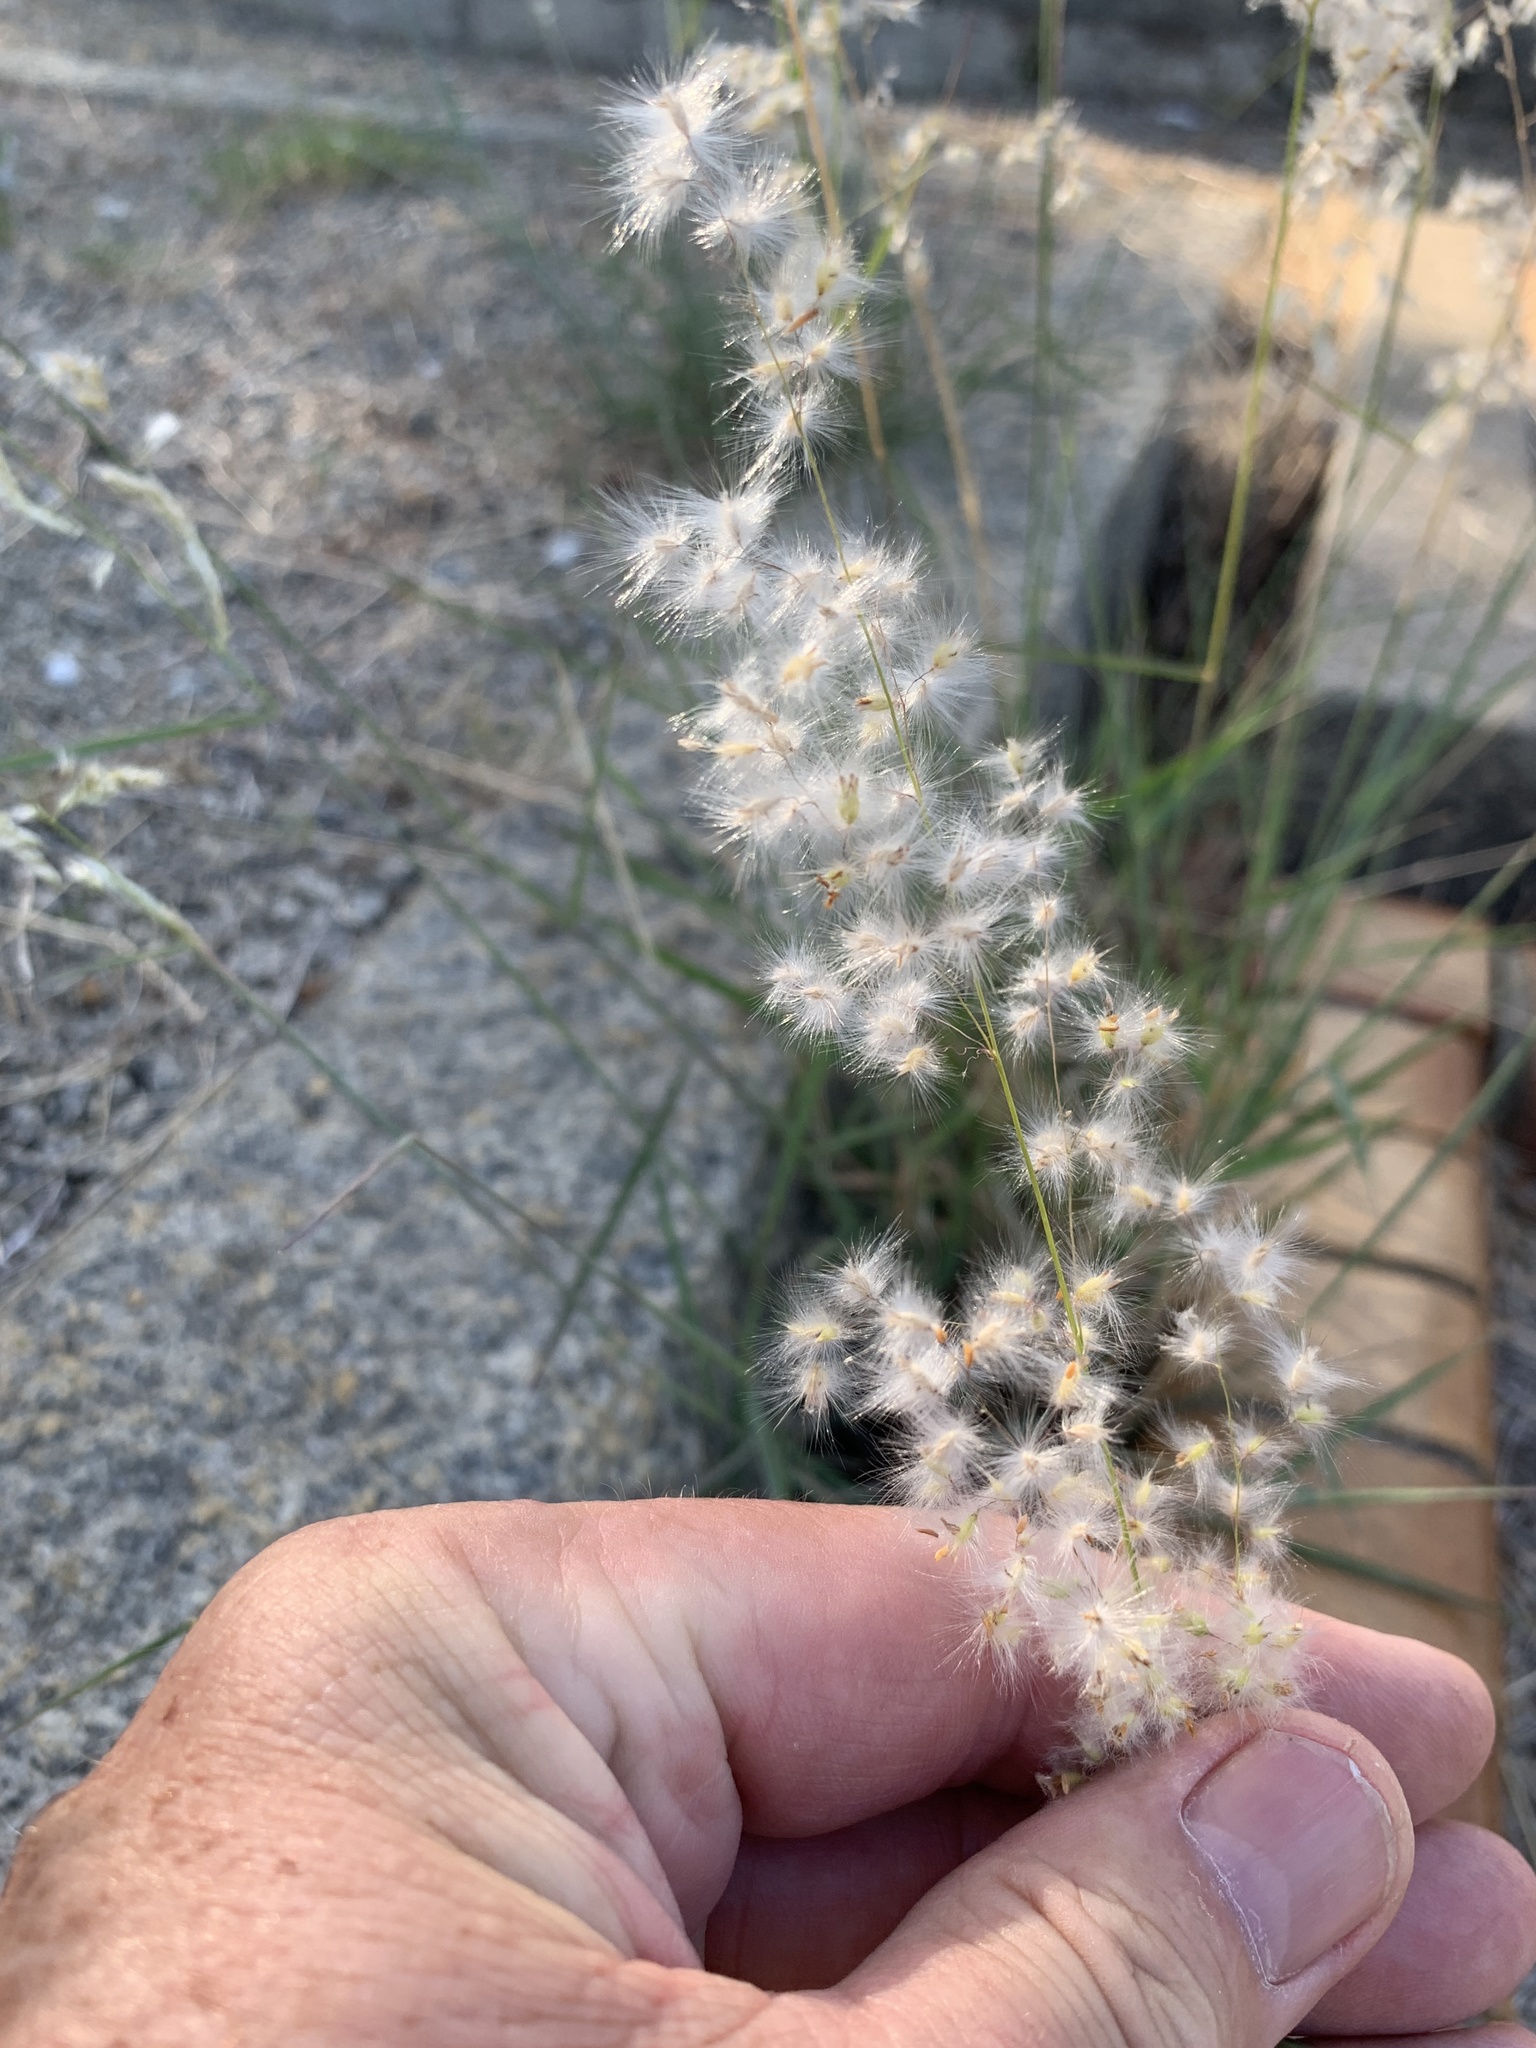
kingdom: Plantae
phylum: Tracheophyta
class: Liliopsida
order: Poales
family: Poaceae
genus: Melinis
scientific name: Melinis repens
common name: Rose natal grass
